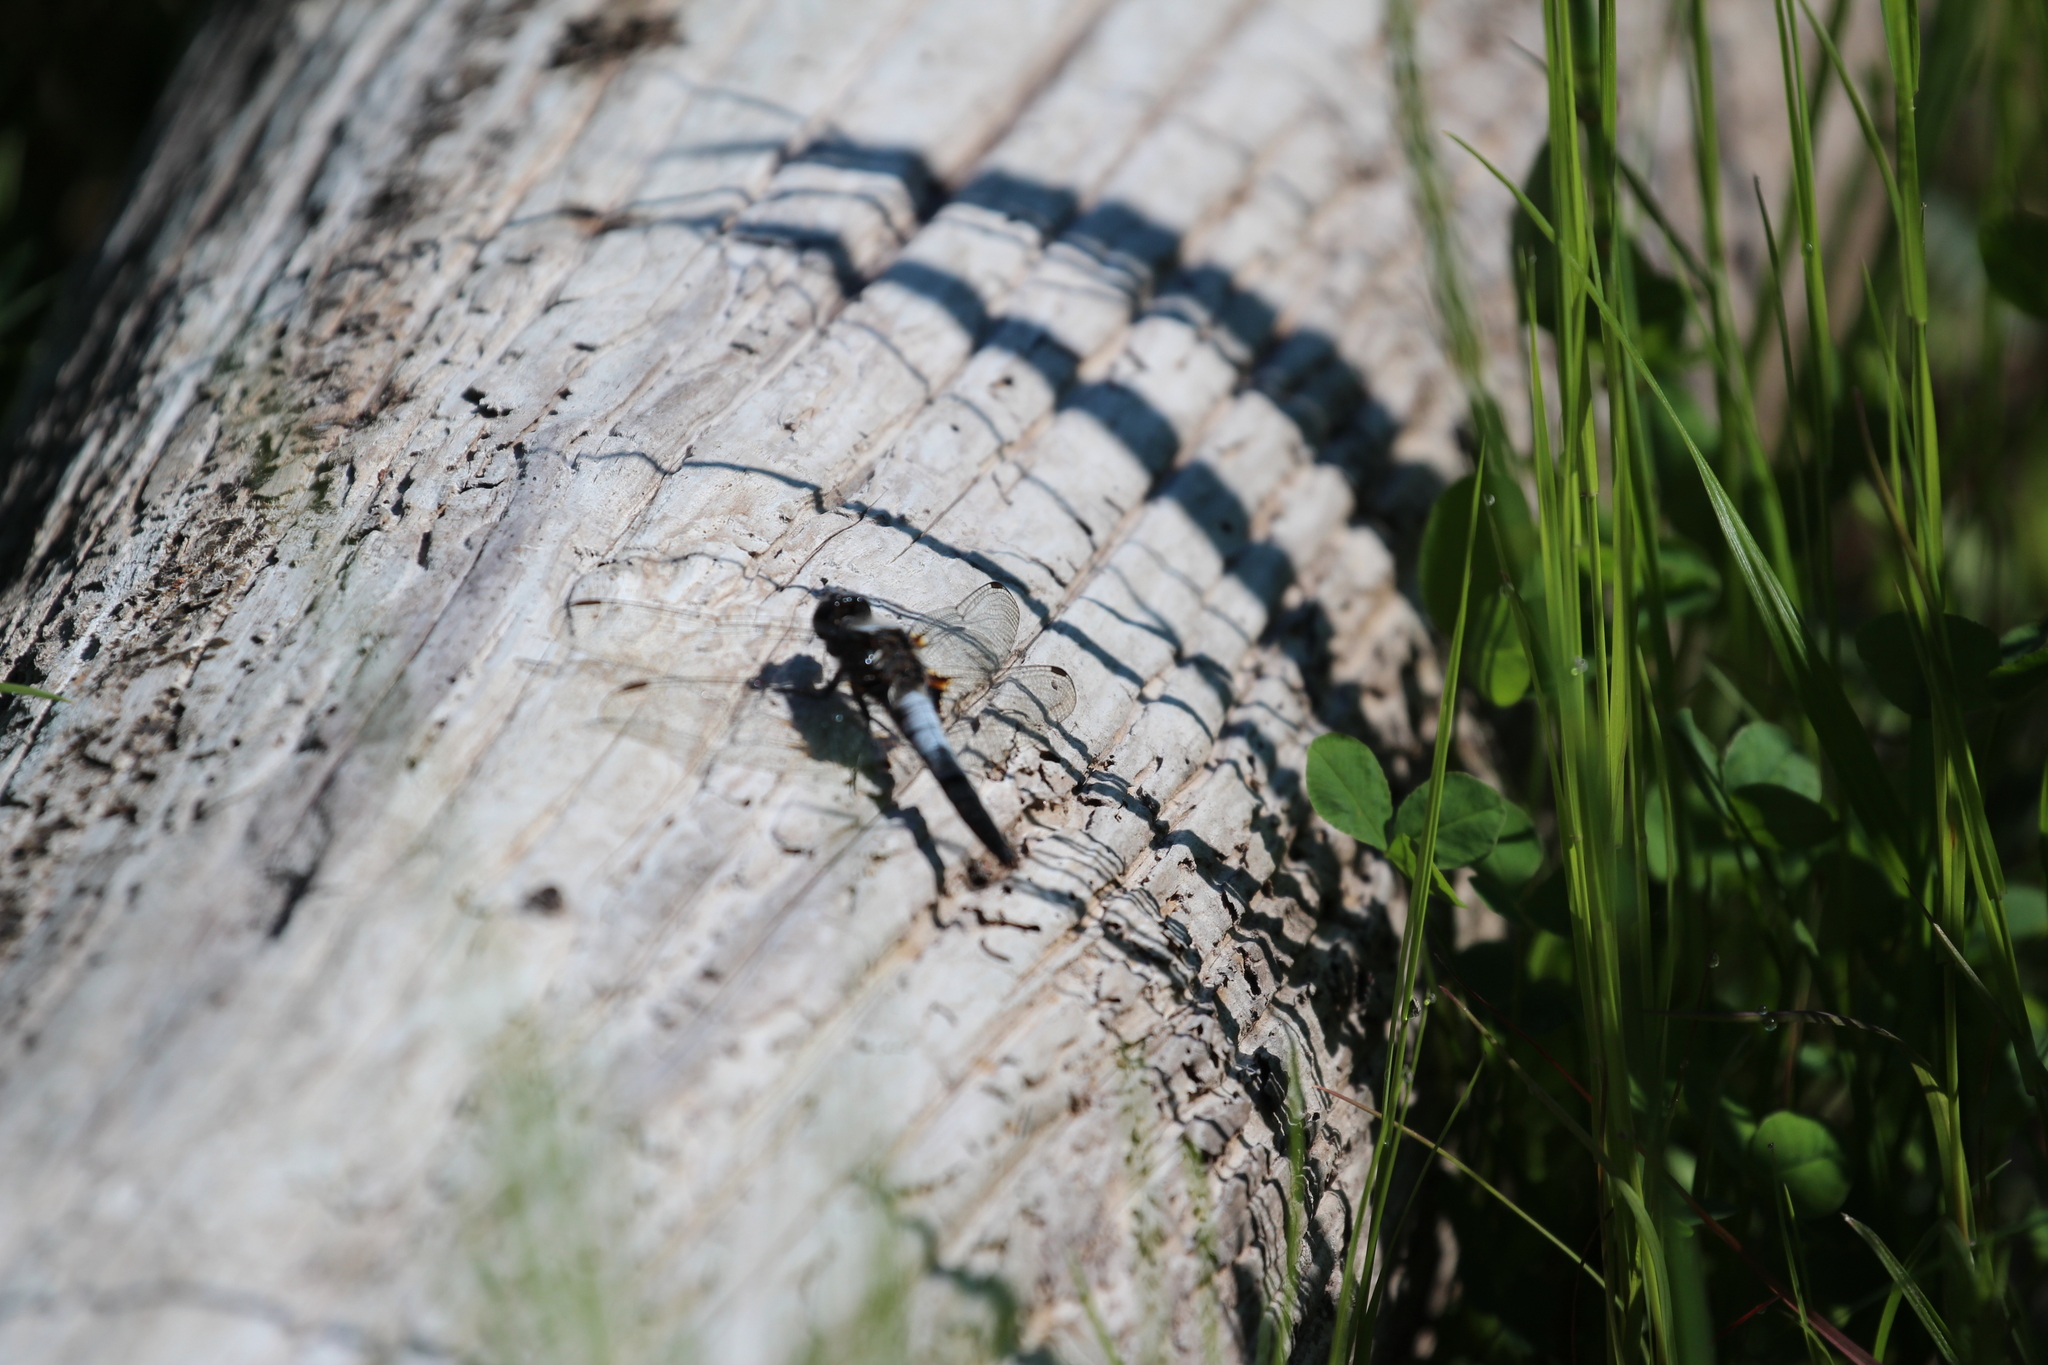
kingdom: Animalia
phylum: Arthropoda
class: Insecta
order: Odonata
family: Libellulidae
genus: Ladona
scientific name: Ladona julia
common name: Chalk-fronted corporal
